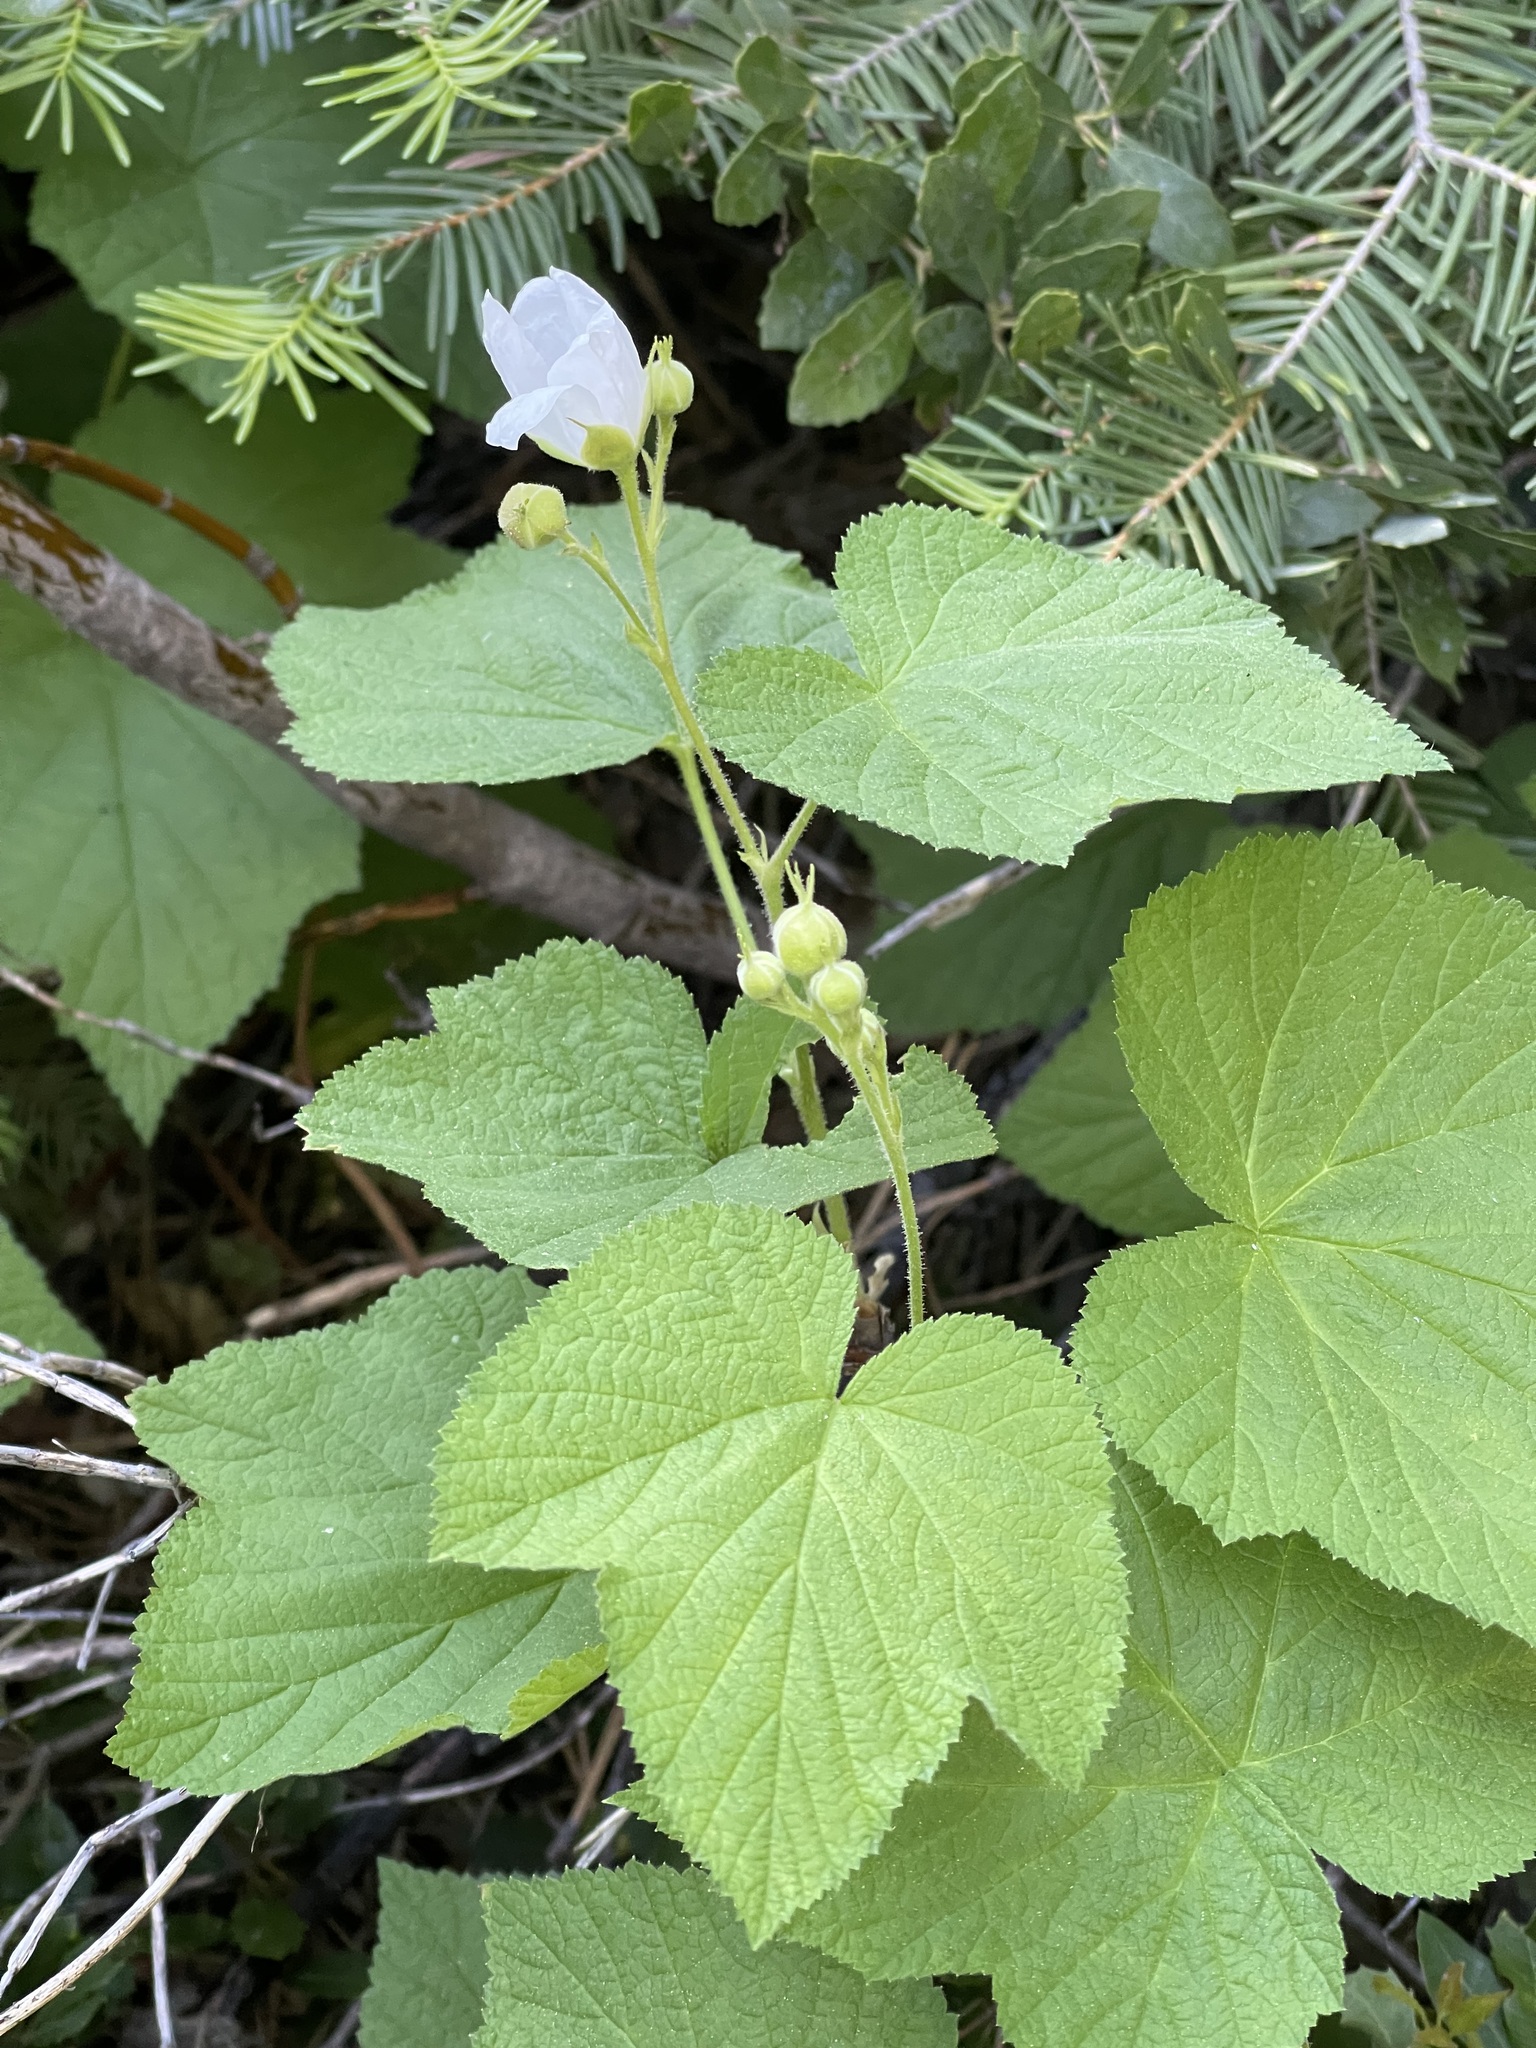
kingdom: Plantae
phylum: Tracheophyta
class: Magnoliopsida
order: Rosales
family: Rosaceae
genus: Rubus
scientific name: Rubus parviflorus
